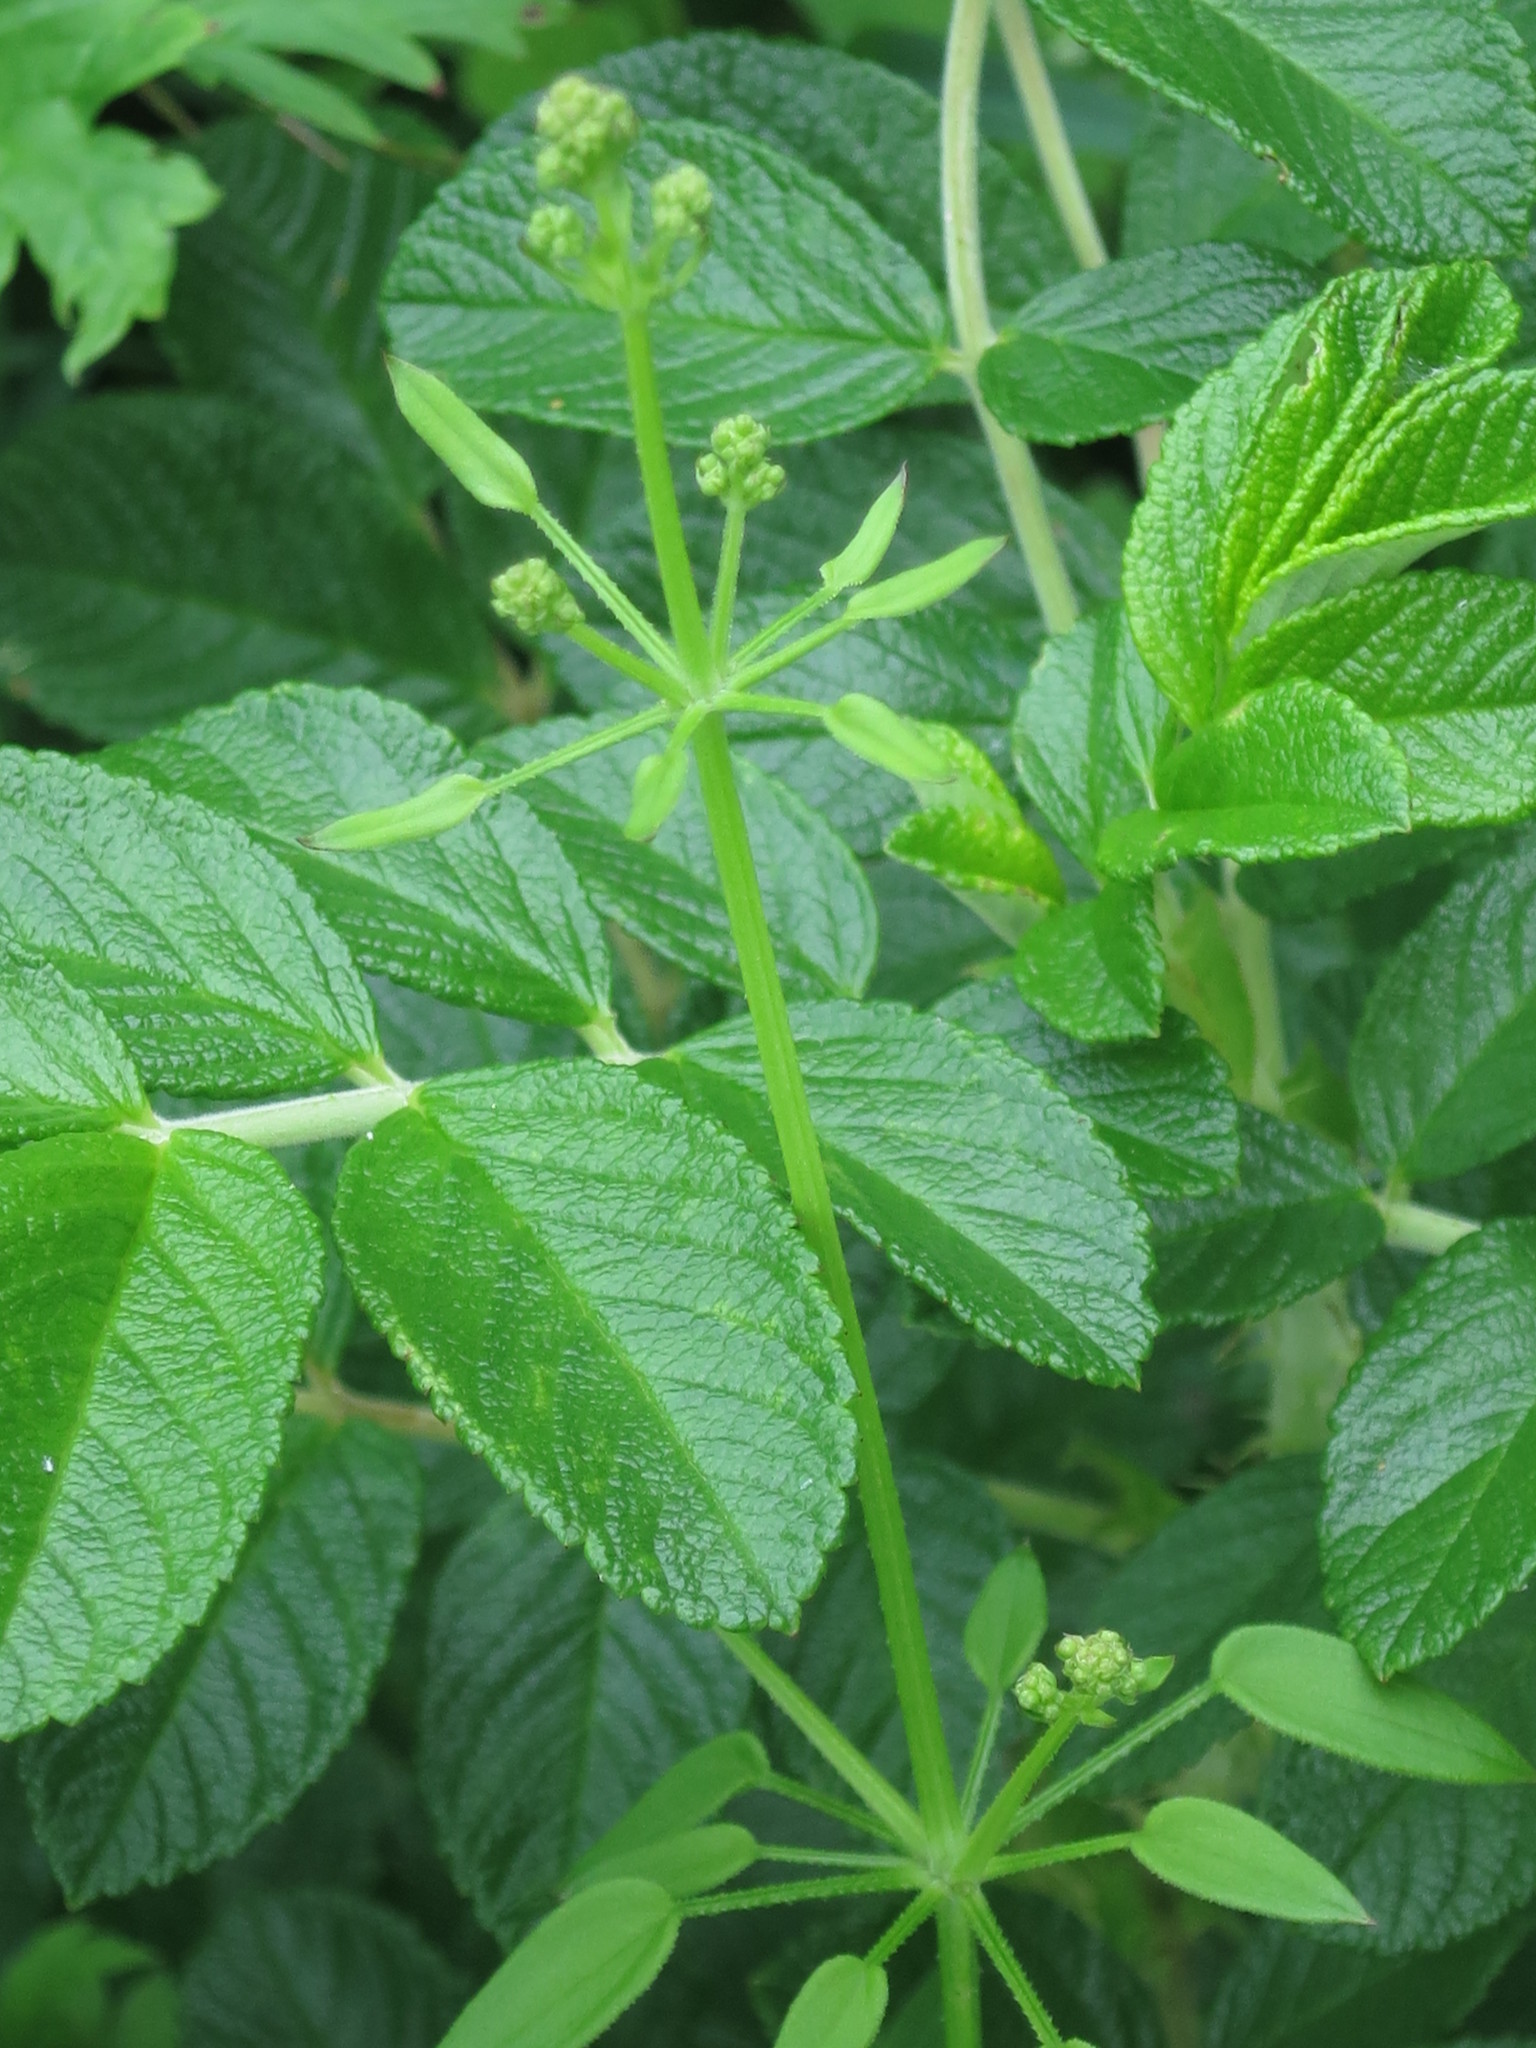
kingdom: Plantae
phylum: Tracheophyta
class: Magnoliopsida
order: Gentianales
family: Rubiaceae
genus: Rubia
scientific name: Rubia cordifolia
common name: Indian madder
